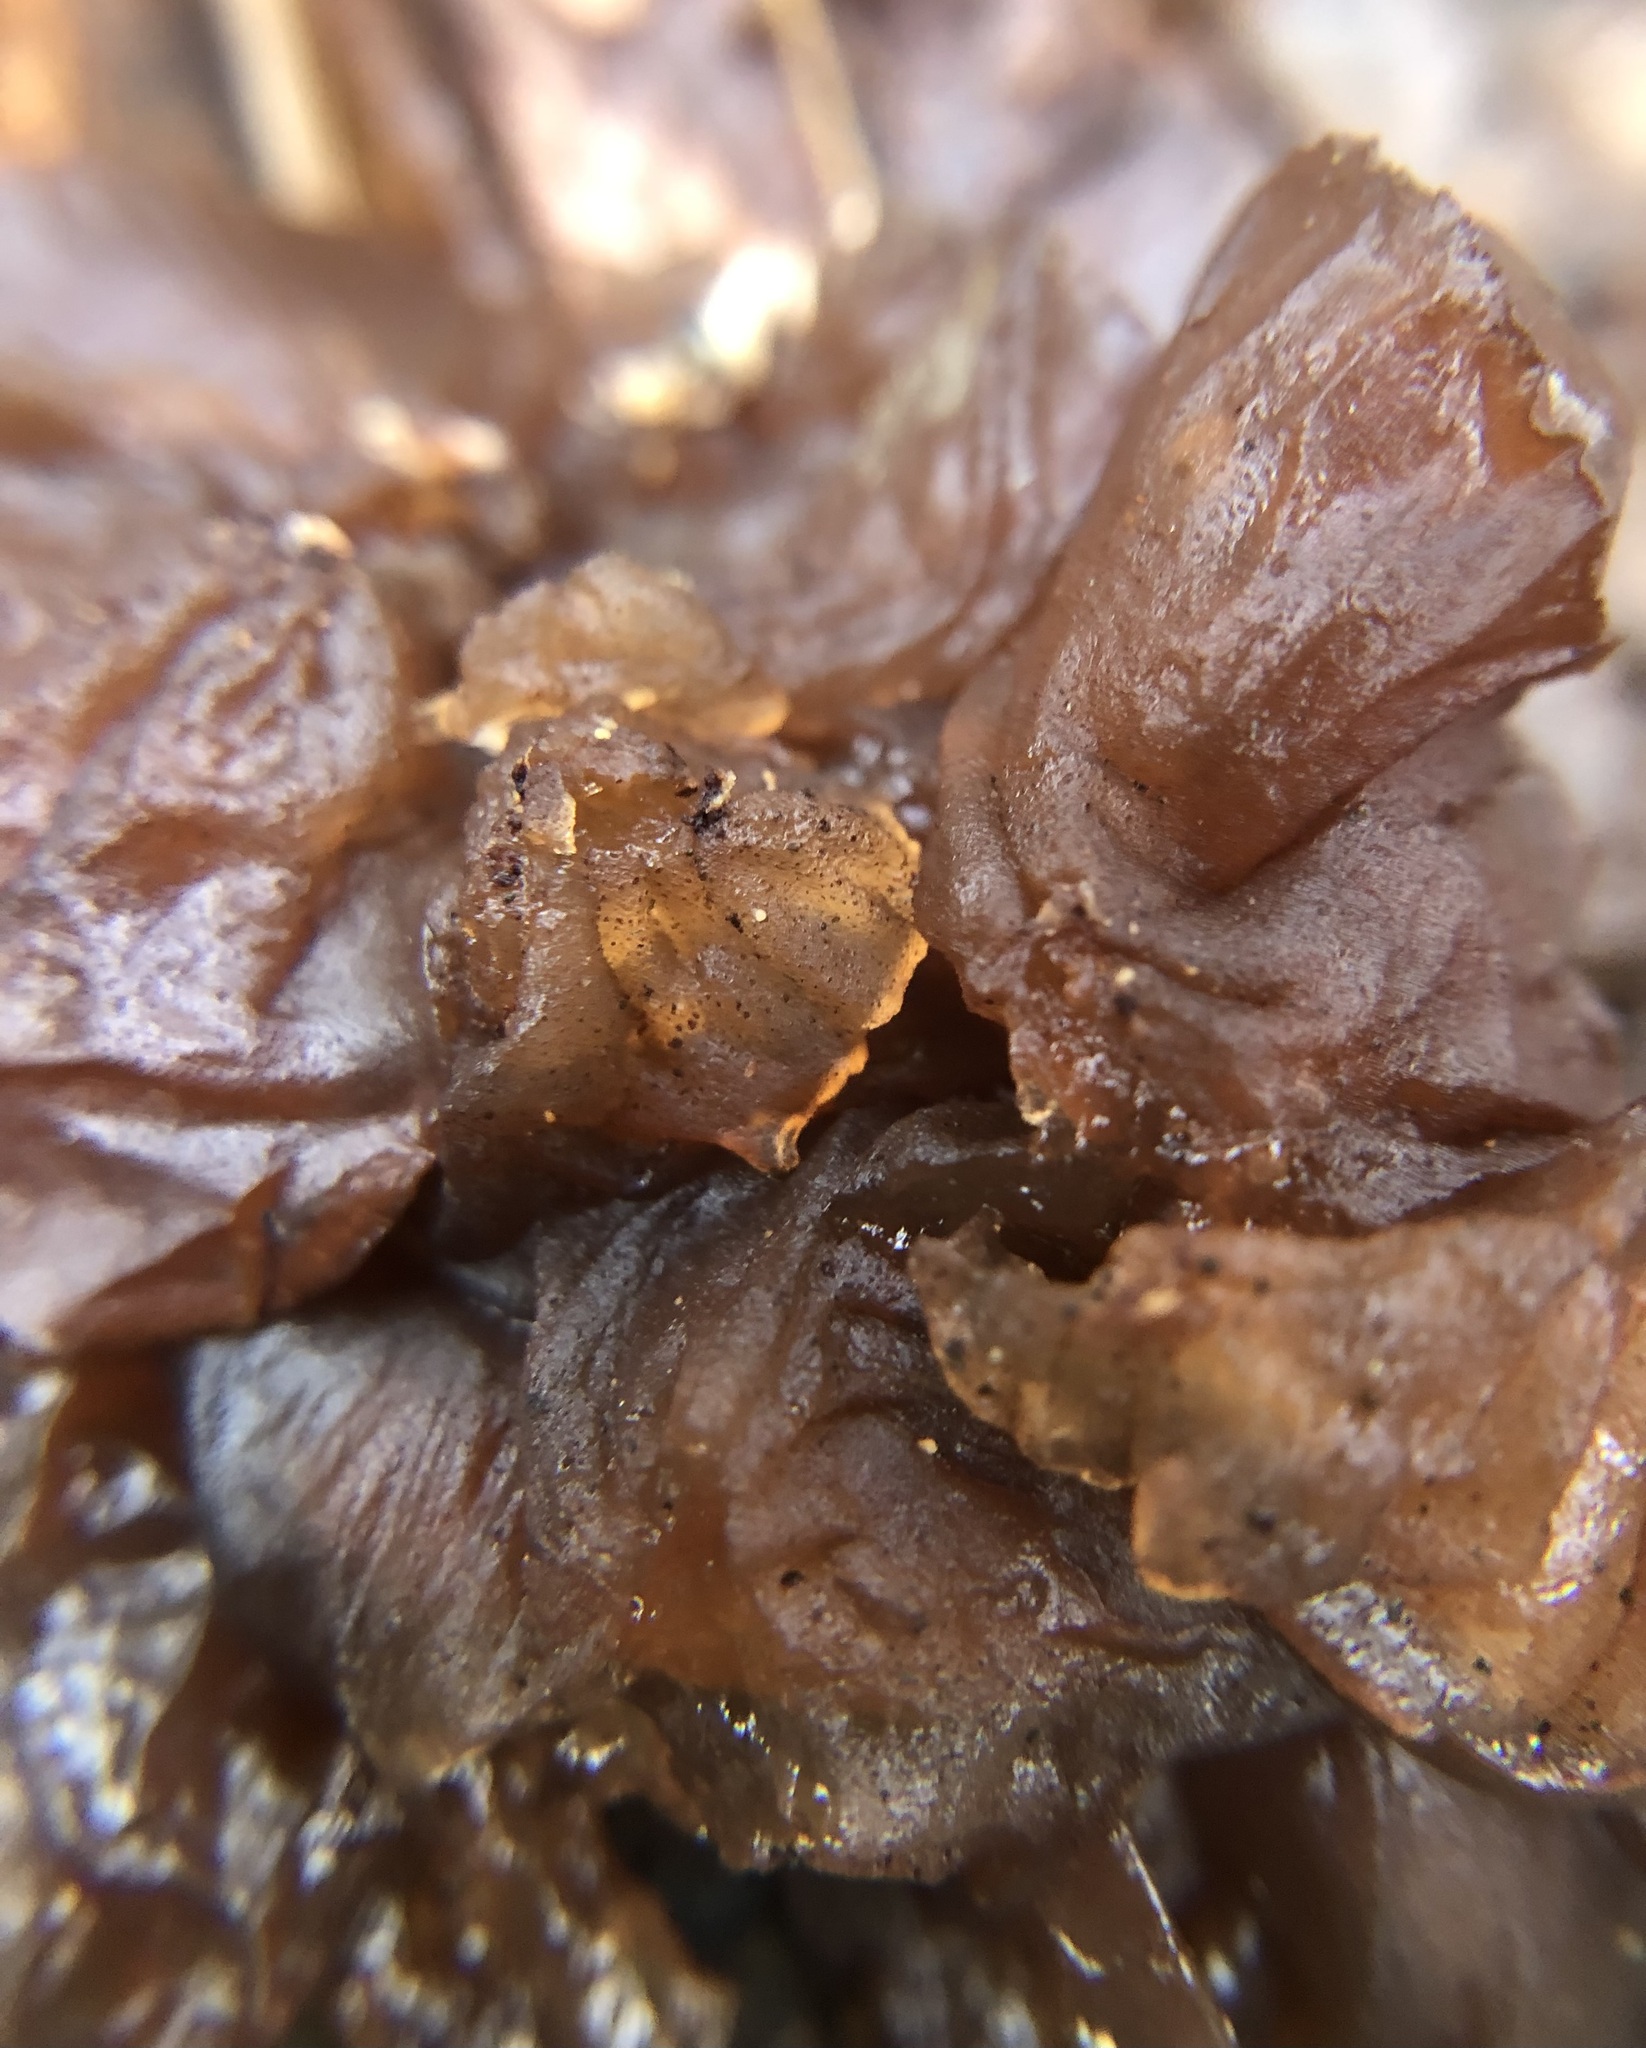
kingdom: Fungi
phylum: Basidiomycota
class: Agaricomycetes
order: Auriculariales
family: Auriculariaceae
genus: Exidia
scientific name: Exidia
